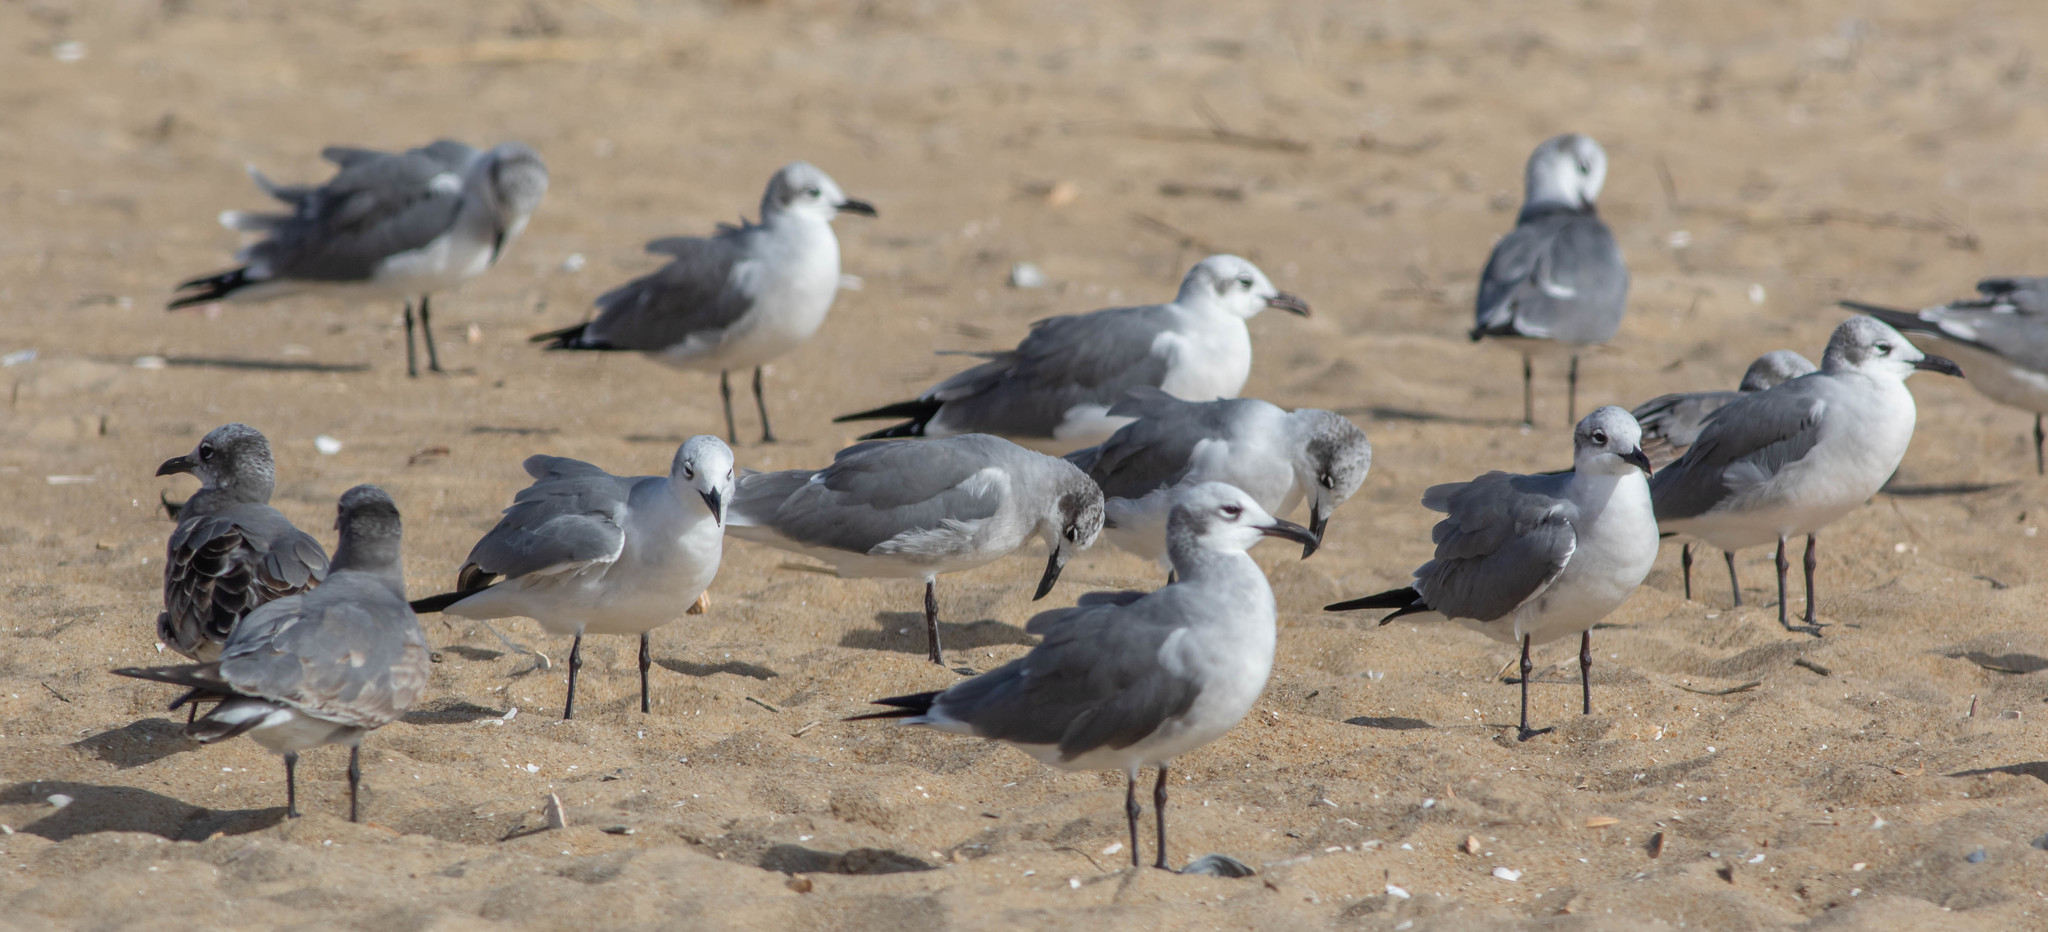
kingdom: Animalia
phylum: Chordata
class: Aves
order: Charadriiformes
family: Laridae
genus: Leucophaeus
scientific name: Leucophaeus atricilla
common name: Laughing gull
